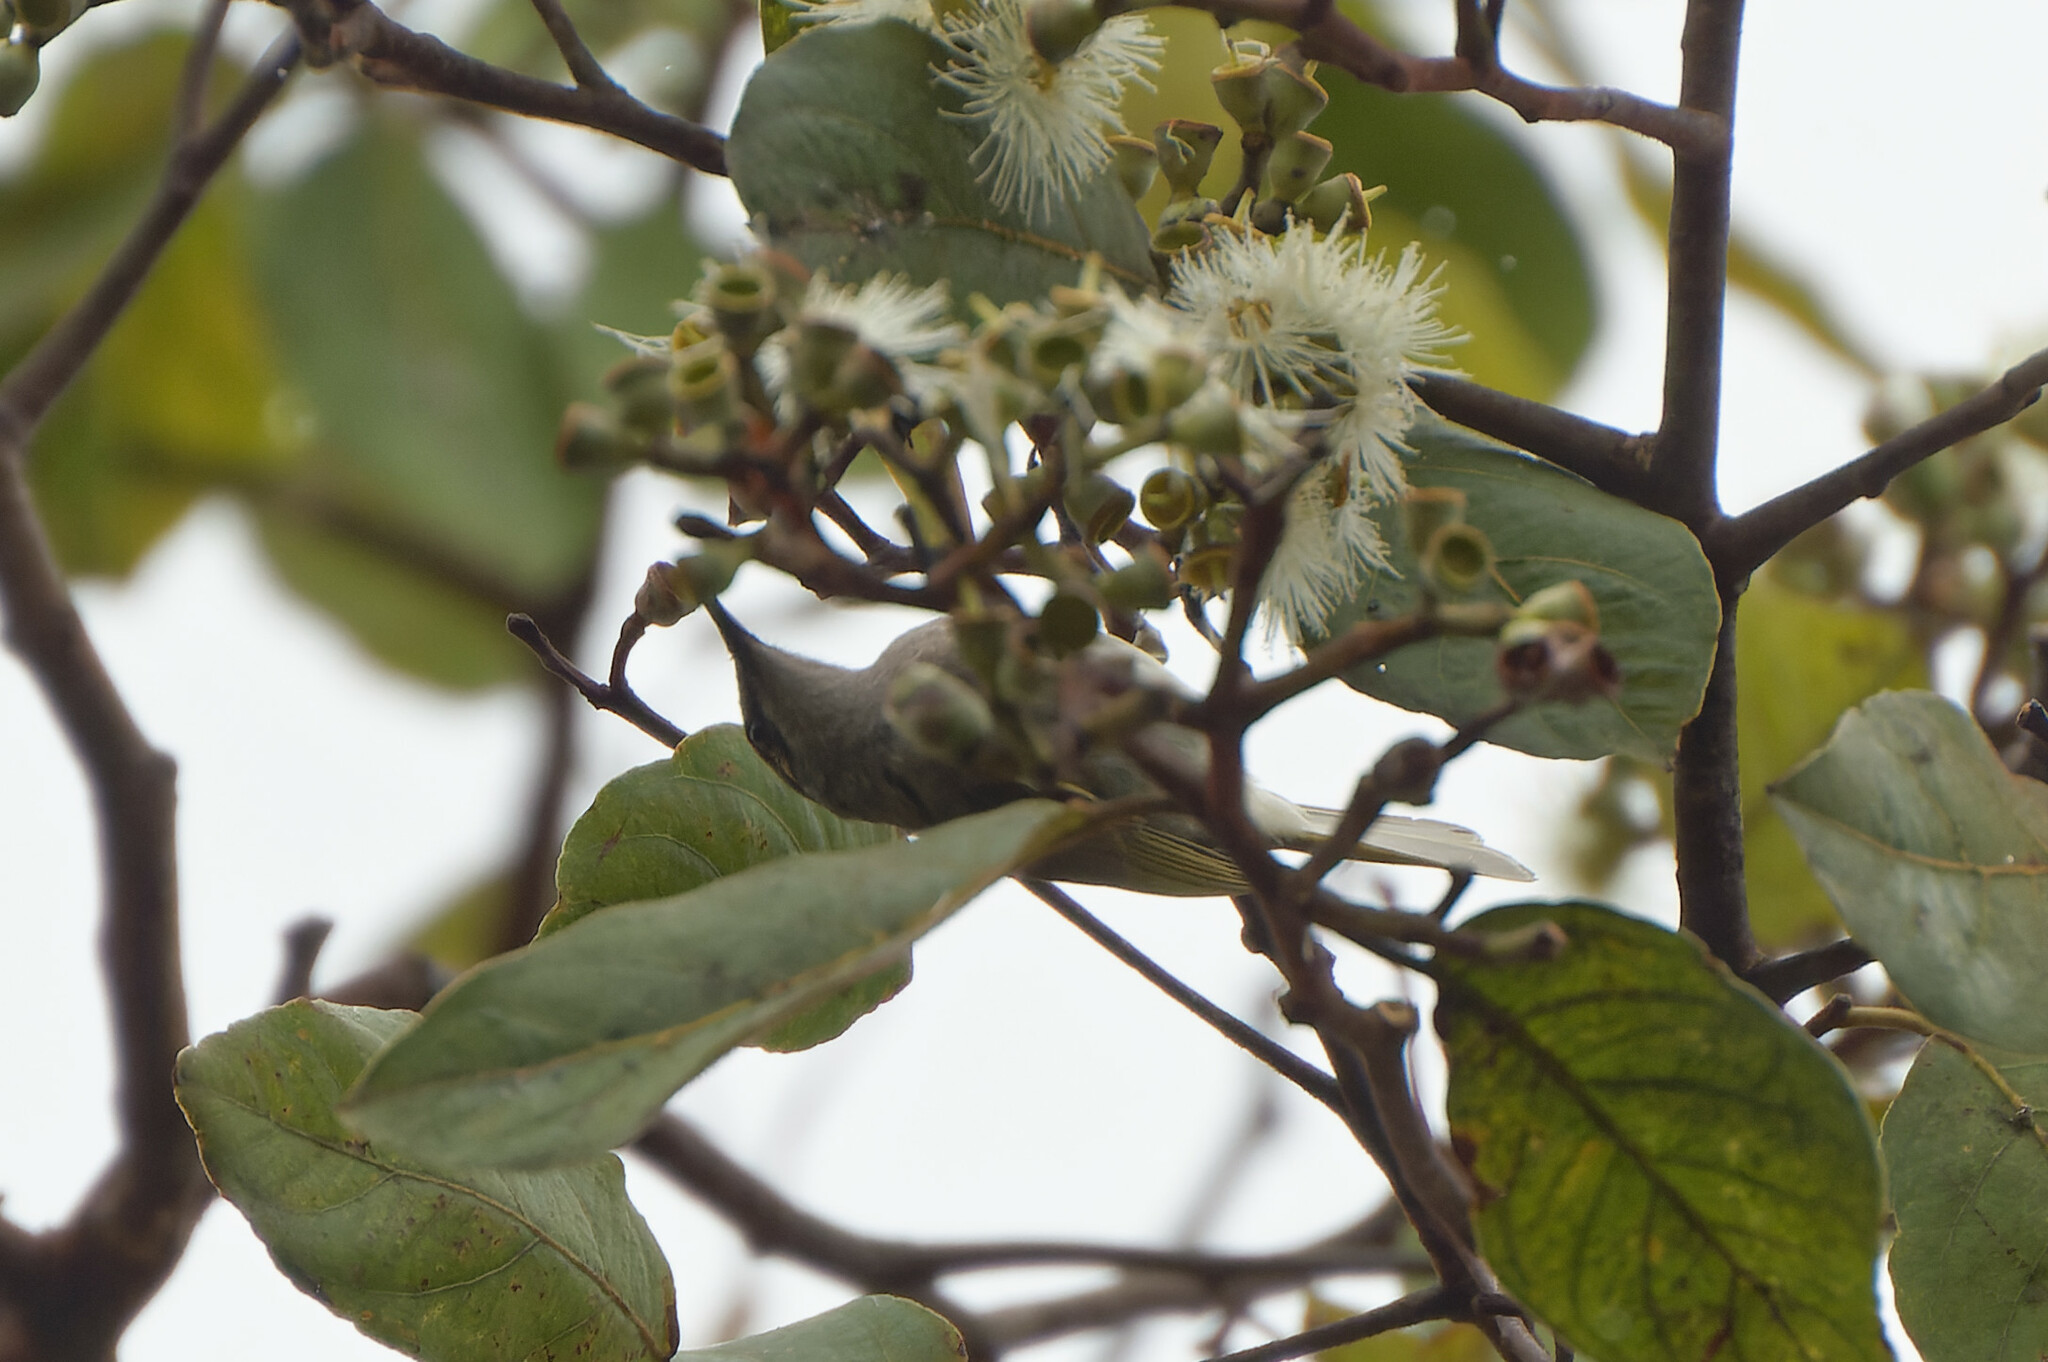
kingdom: Animalia
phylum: Chordata
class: Aves
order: Passeriformes
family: Meliphagidae
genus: Lichmera
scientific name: Lichmera indistincta
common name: Brown honeyeater
